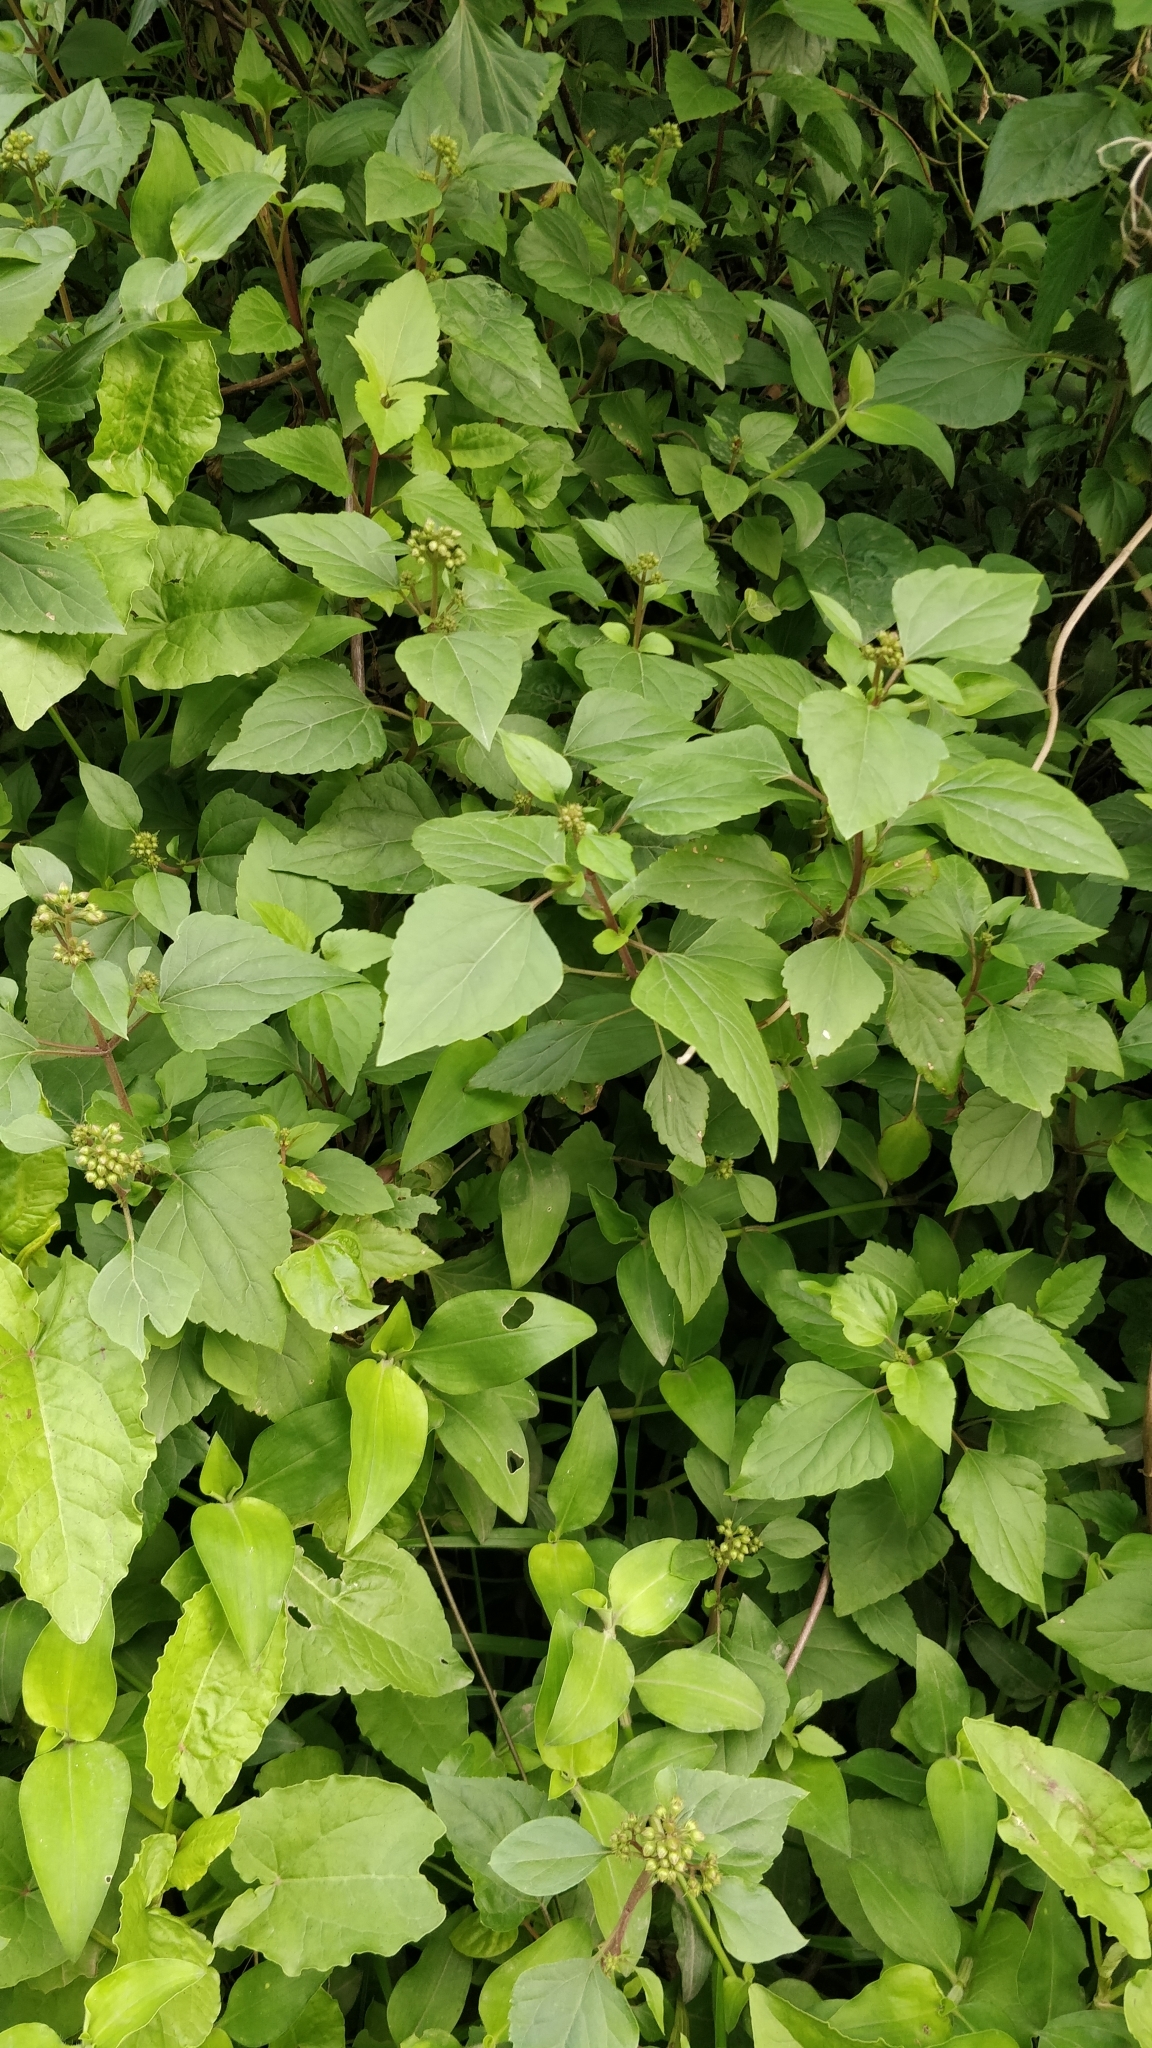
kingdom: Plantae
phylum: Tracheophyta
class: Magnoliopsida
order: Asterales
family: Asteraceae
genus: Ageratina
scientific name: Ageratina adenophora
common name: Sticky snakeroot
